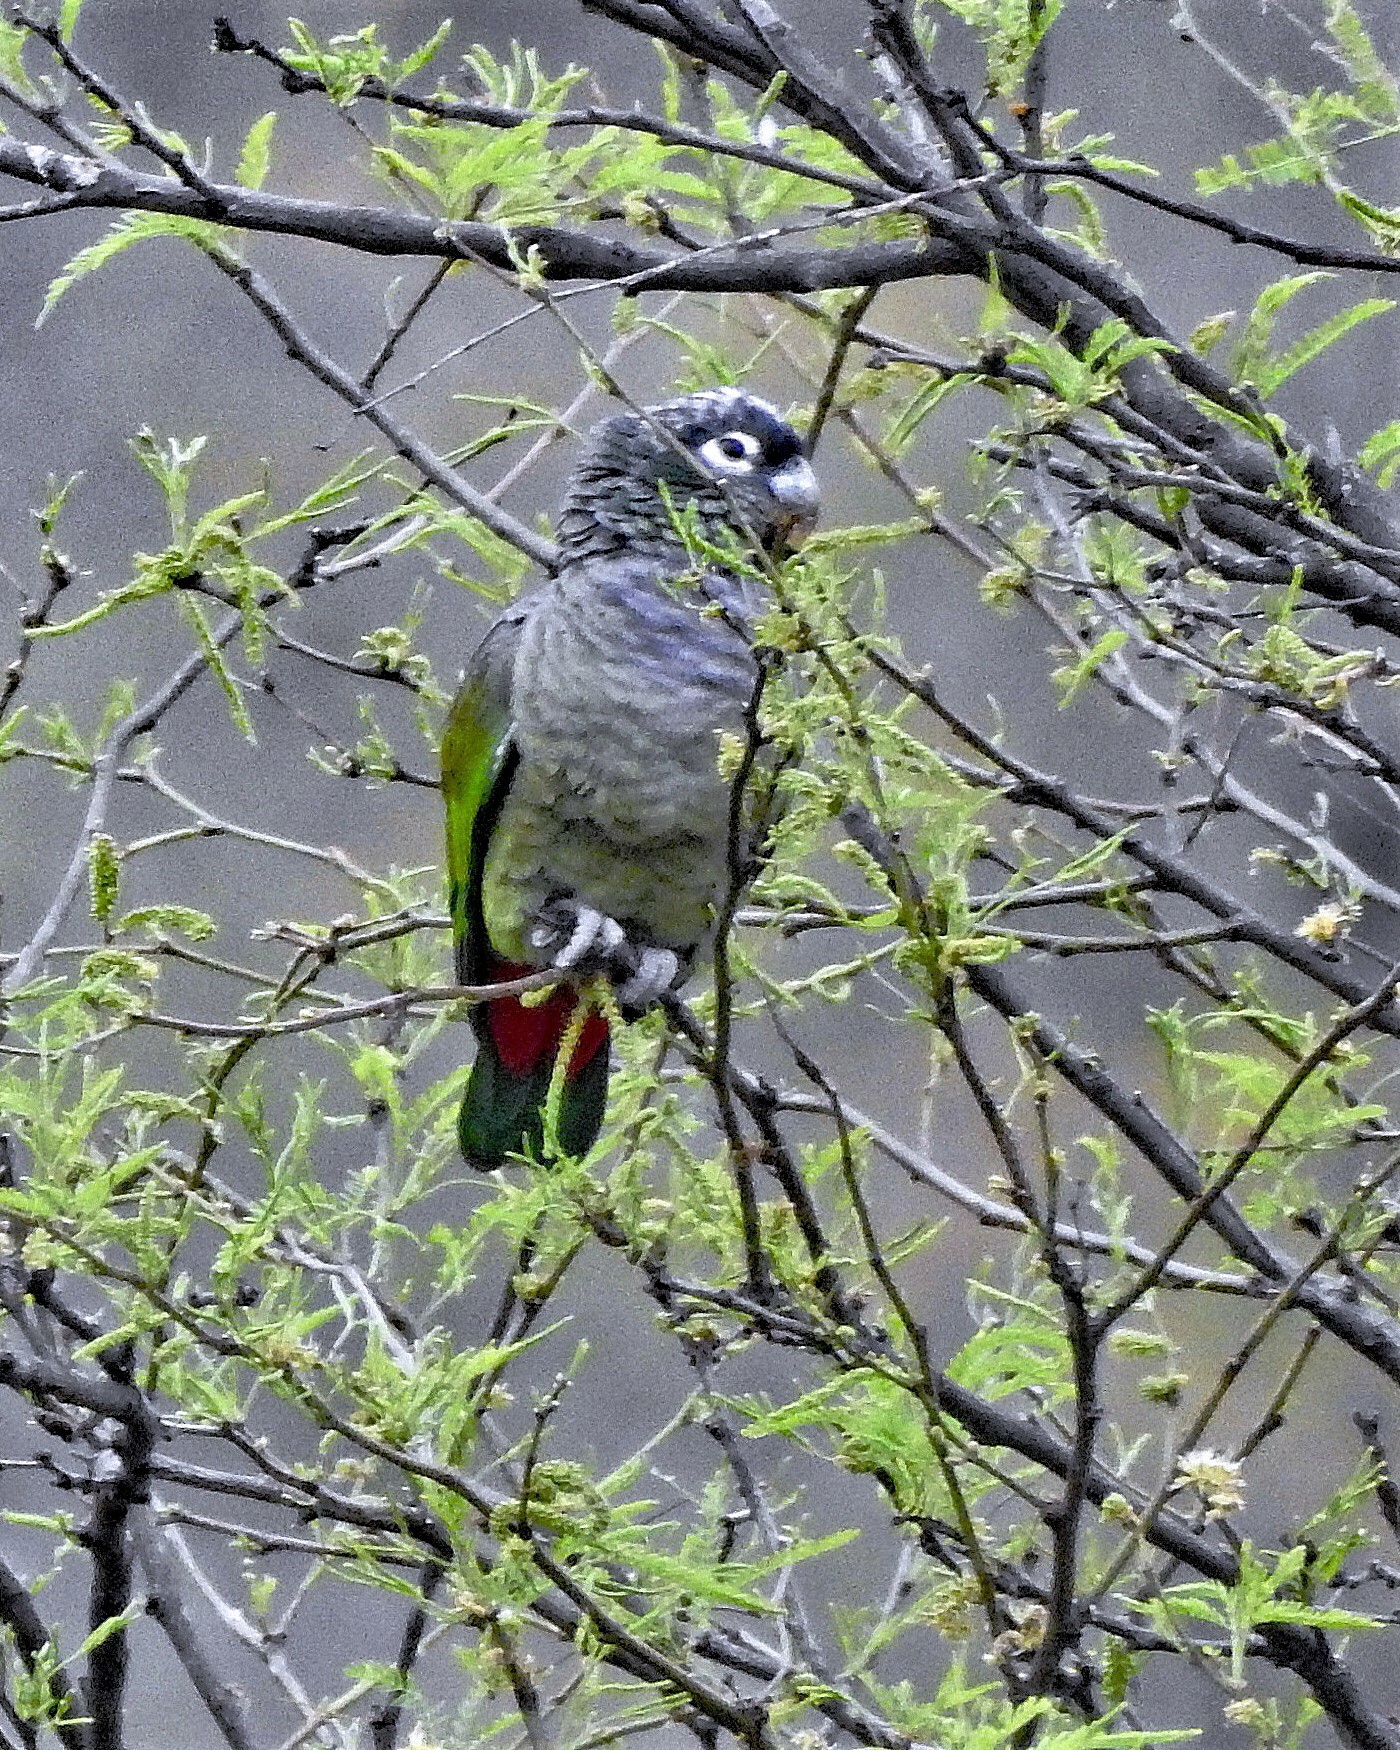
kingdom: Animalia
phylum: Chordata
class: Aves
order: Psittaciformes
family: Psittacidae
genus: Pionus
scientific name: Pionus maximiliani
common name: Scaly-headed parrot
